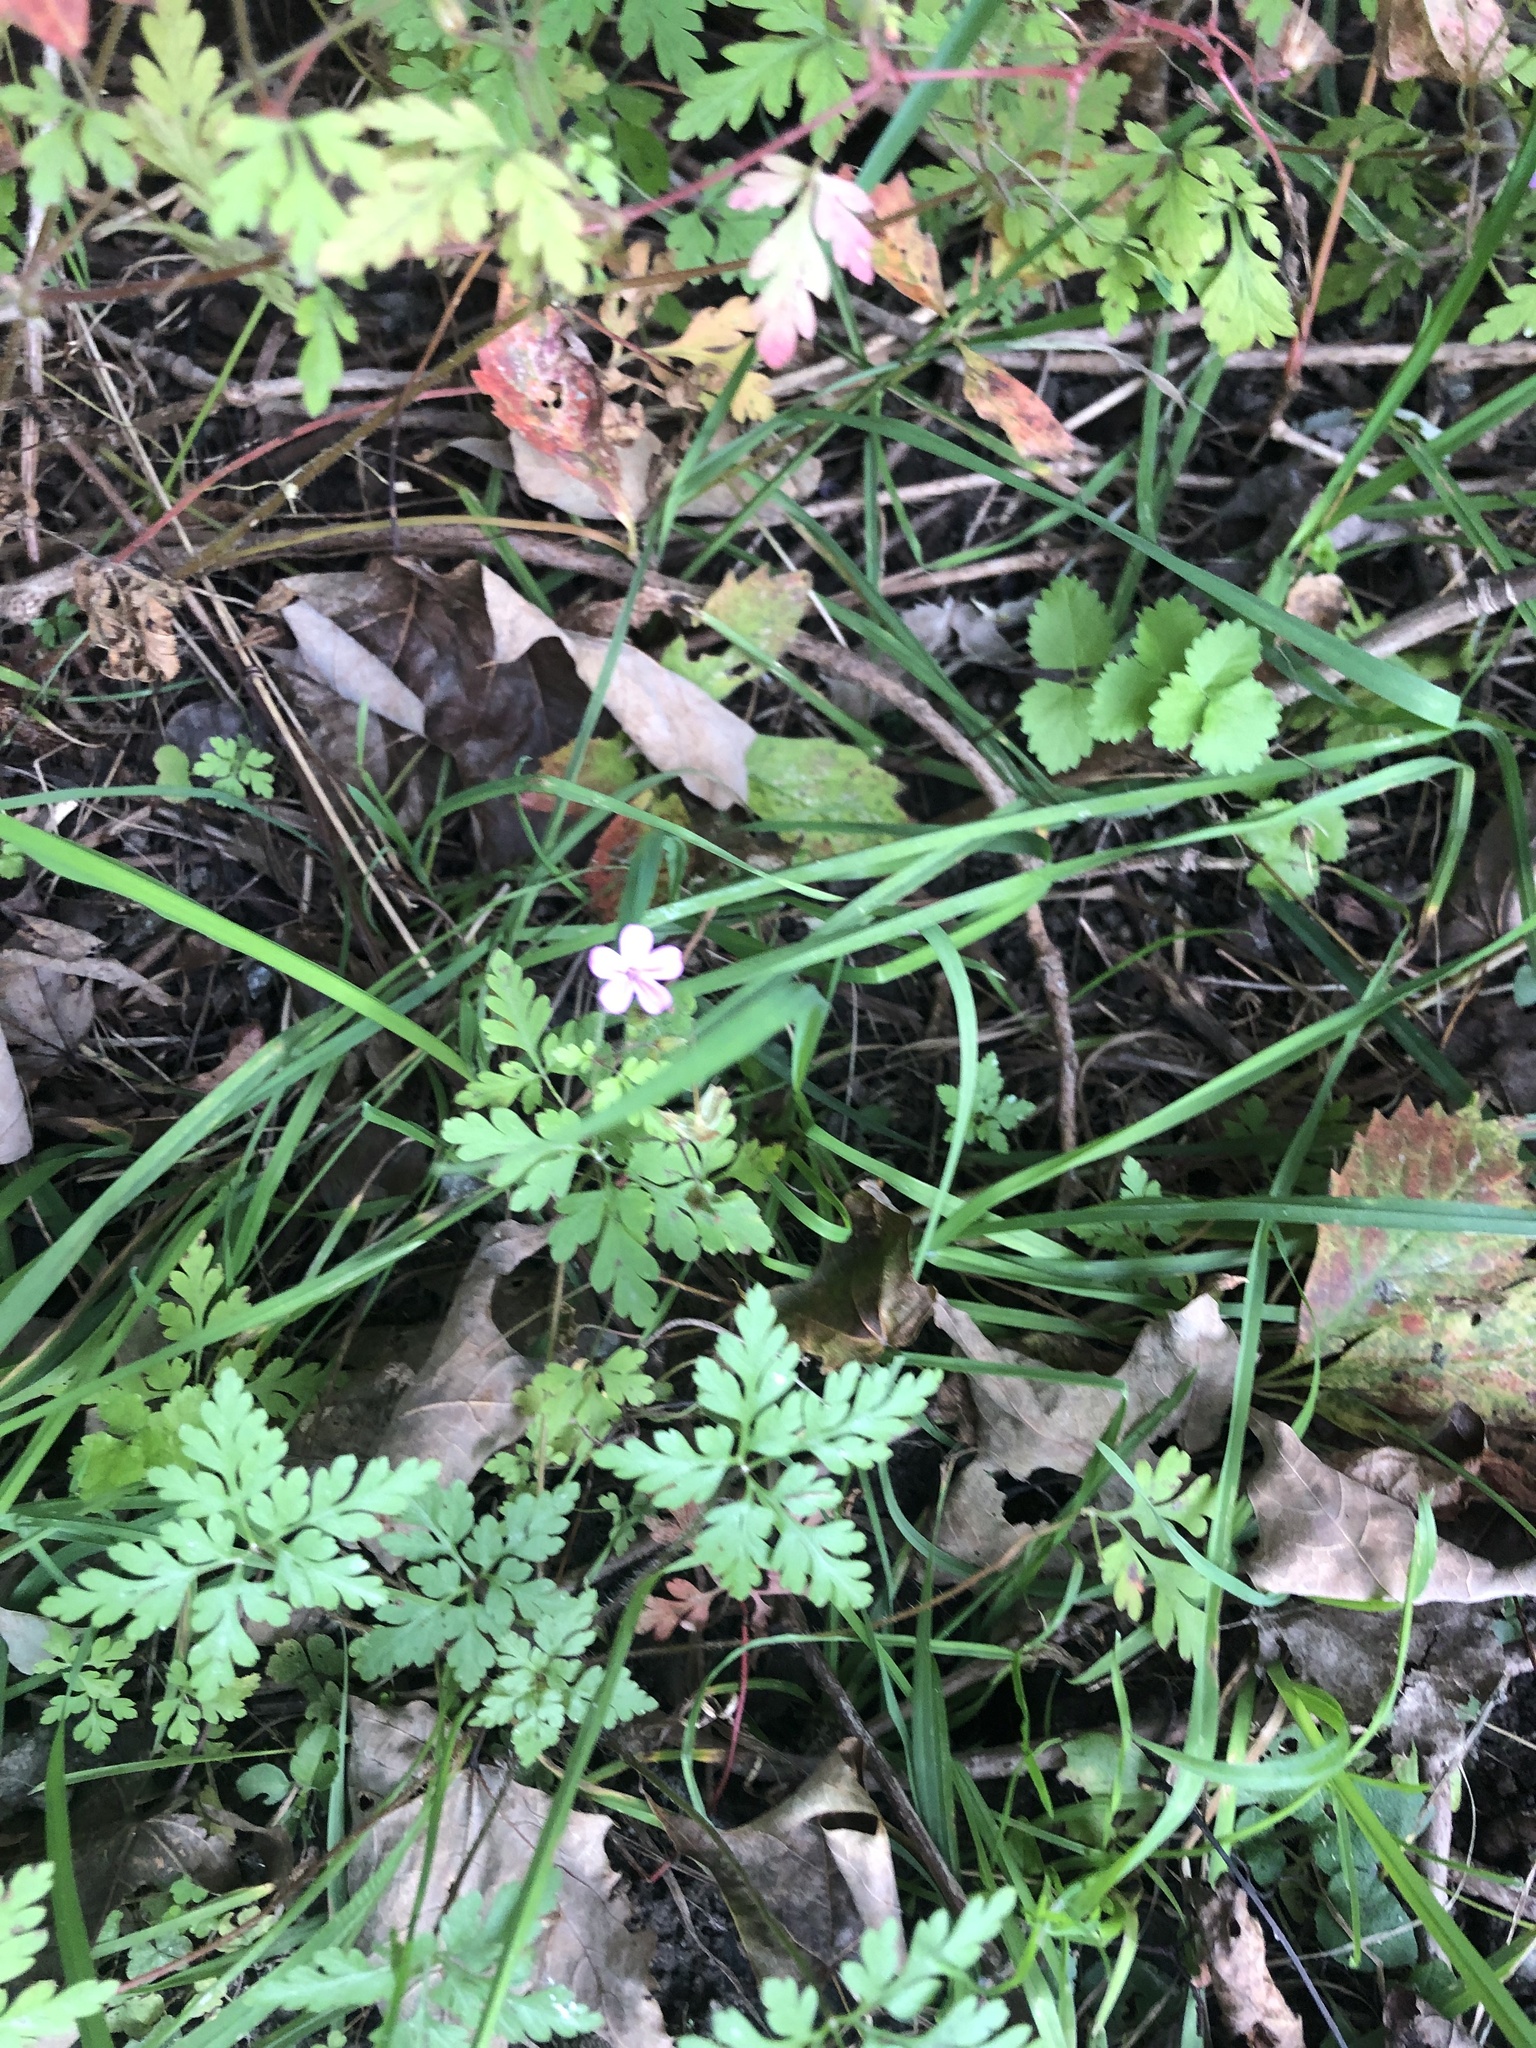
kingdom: Plantae
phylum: Tracheophyta
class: Magnoliopsida
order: Geraniales
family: Geraniaceae
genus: Geranium
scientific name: Geranium robertianum
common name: Herb-robert
